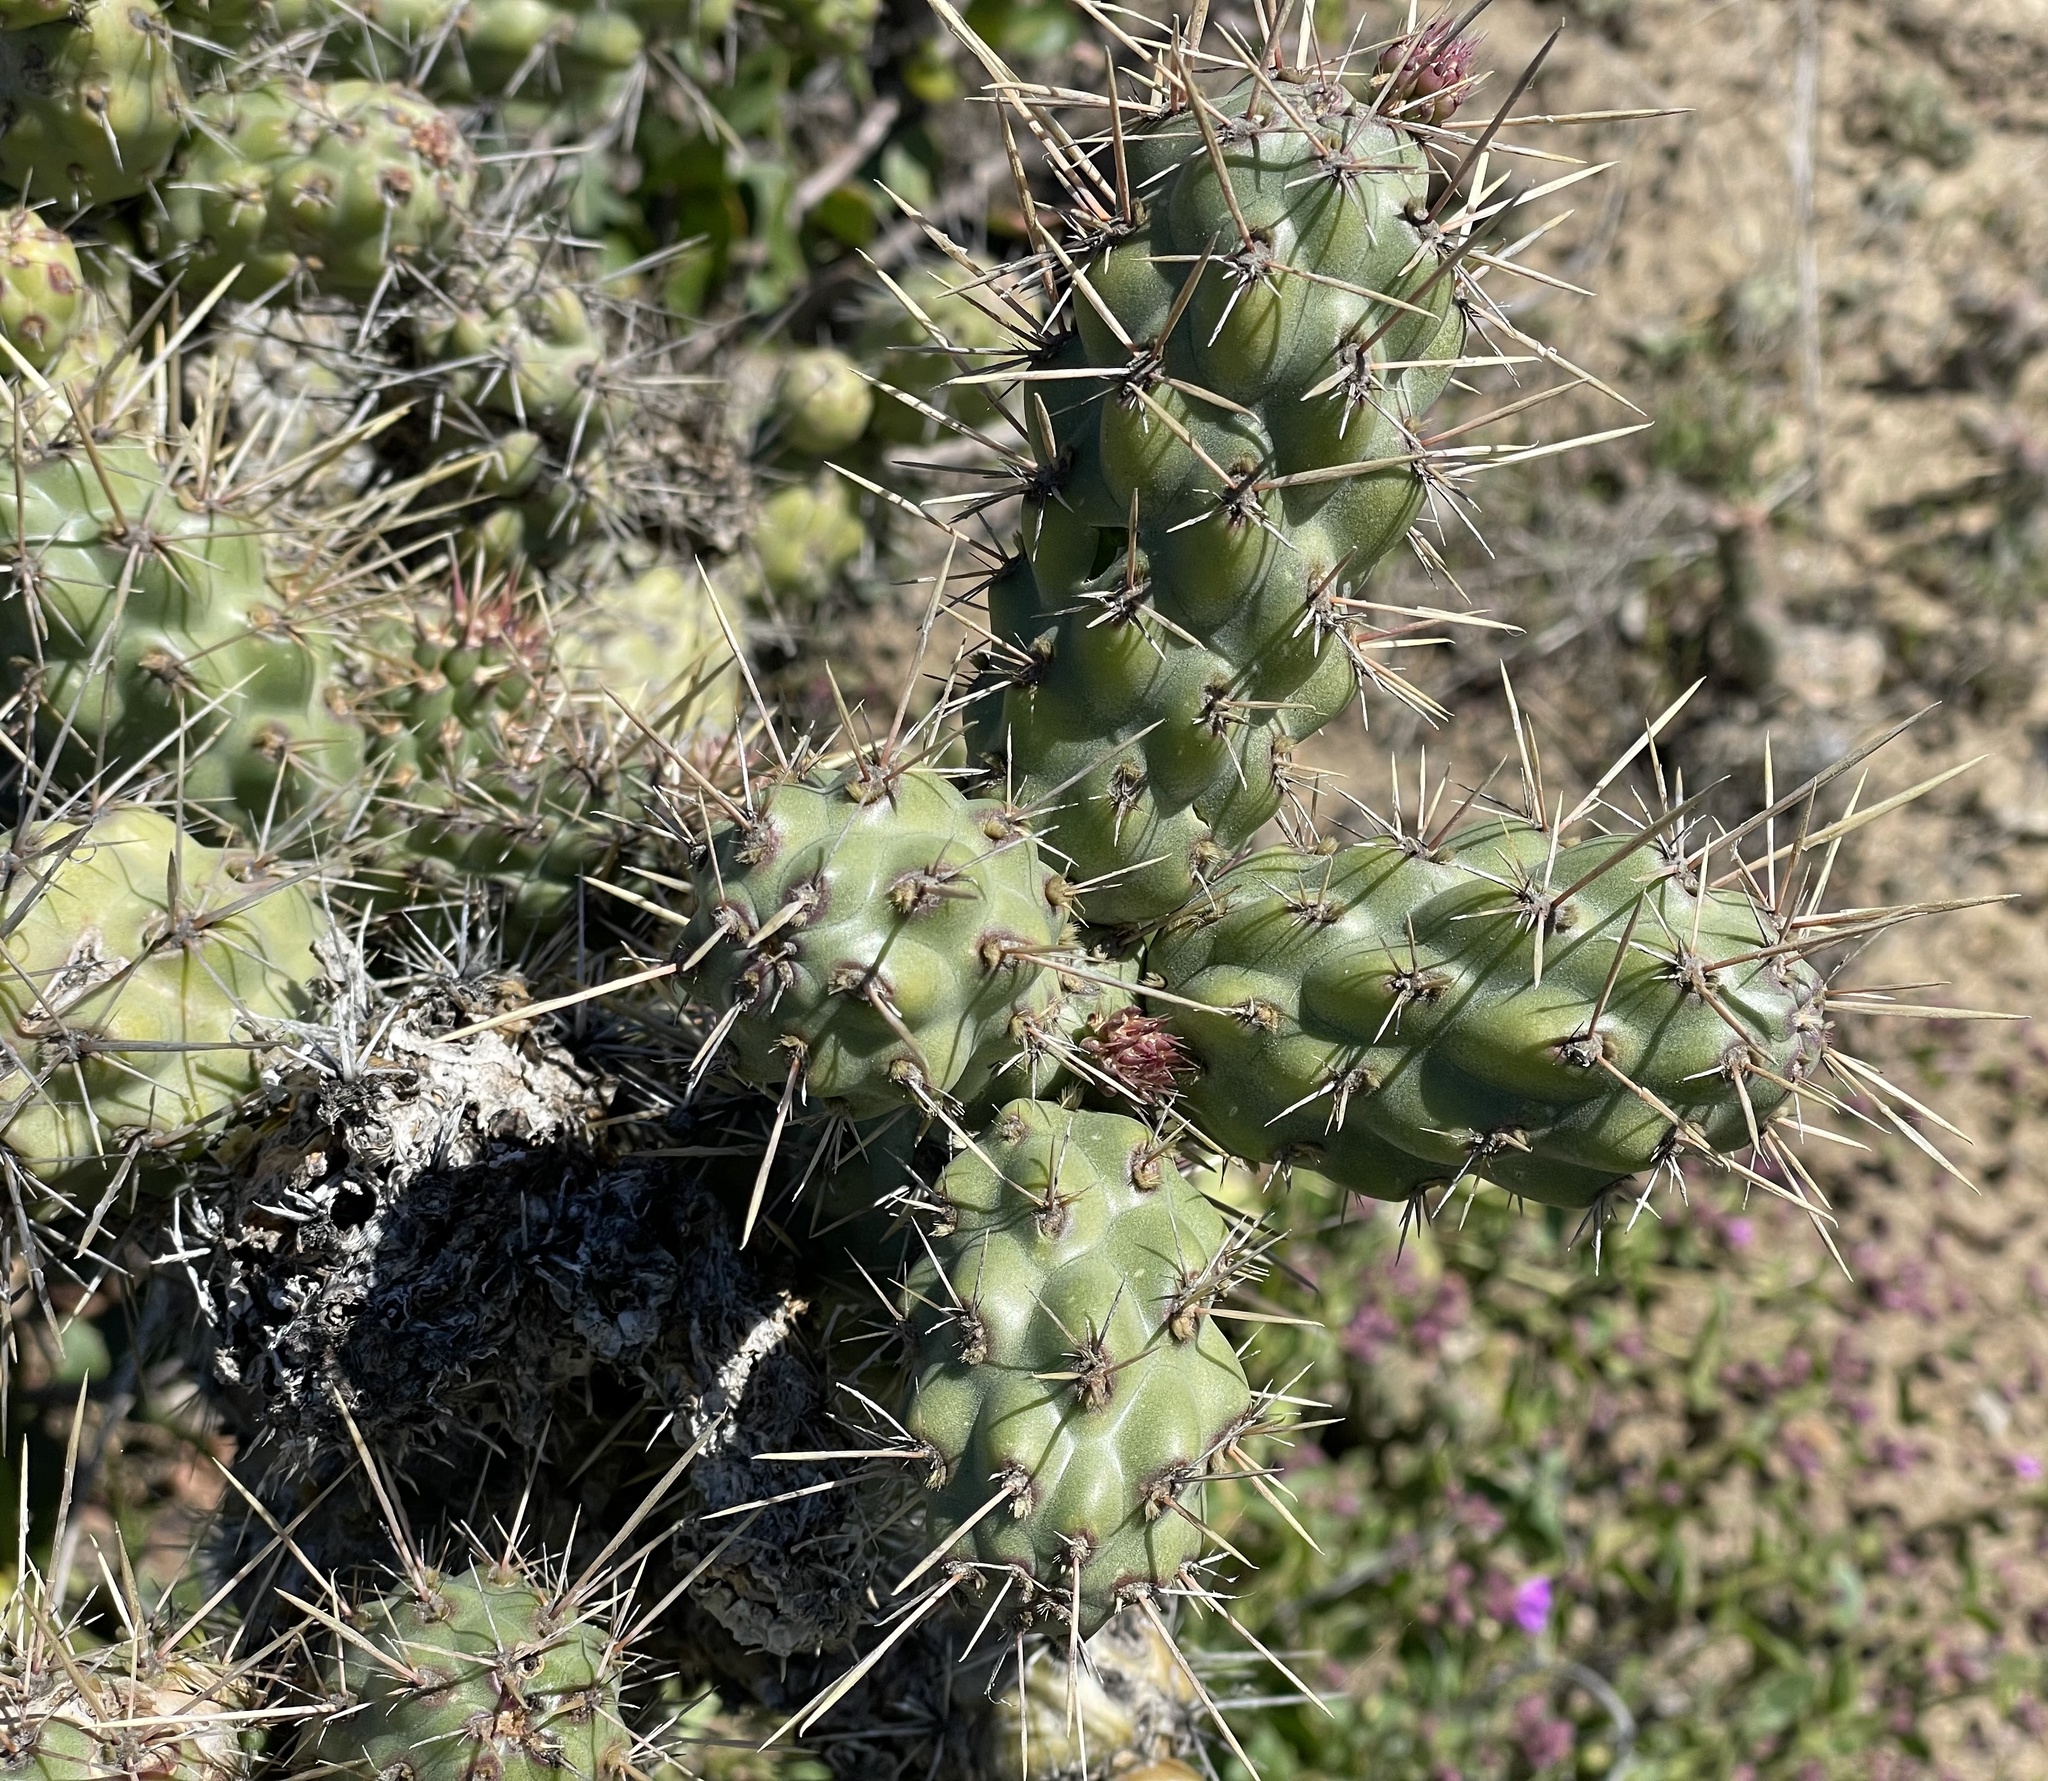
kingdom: Plantae
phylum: Tracheophyta
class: Magnoliopsida
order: Caryophyllales
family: Cactaceae
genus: Cylindropuntia
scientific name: Cylindropuntia prolifera
